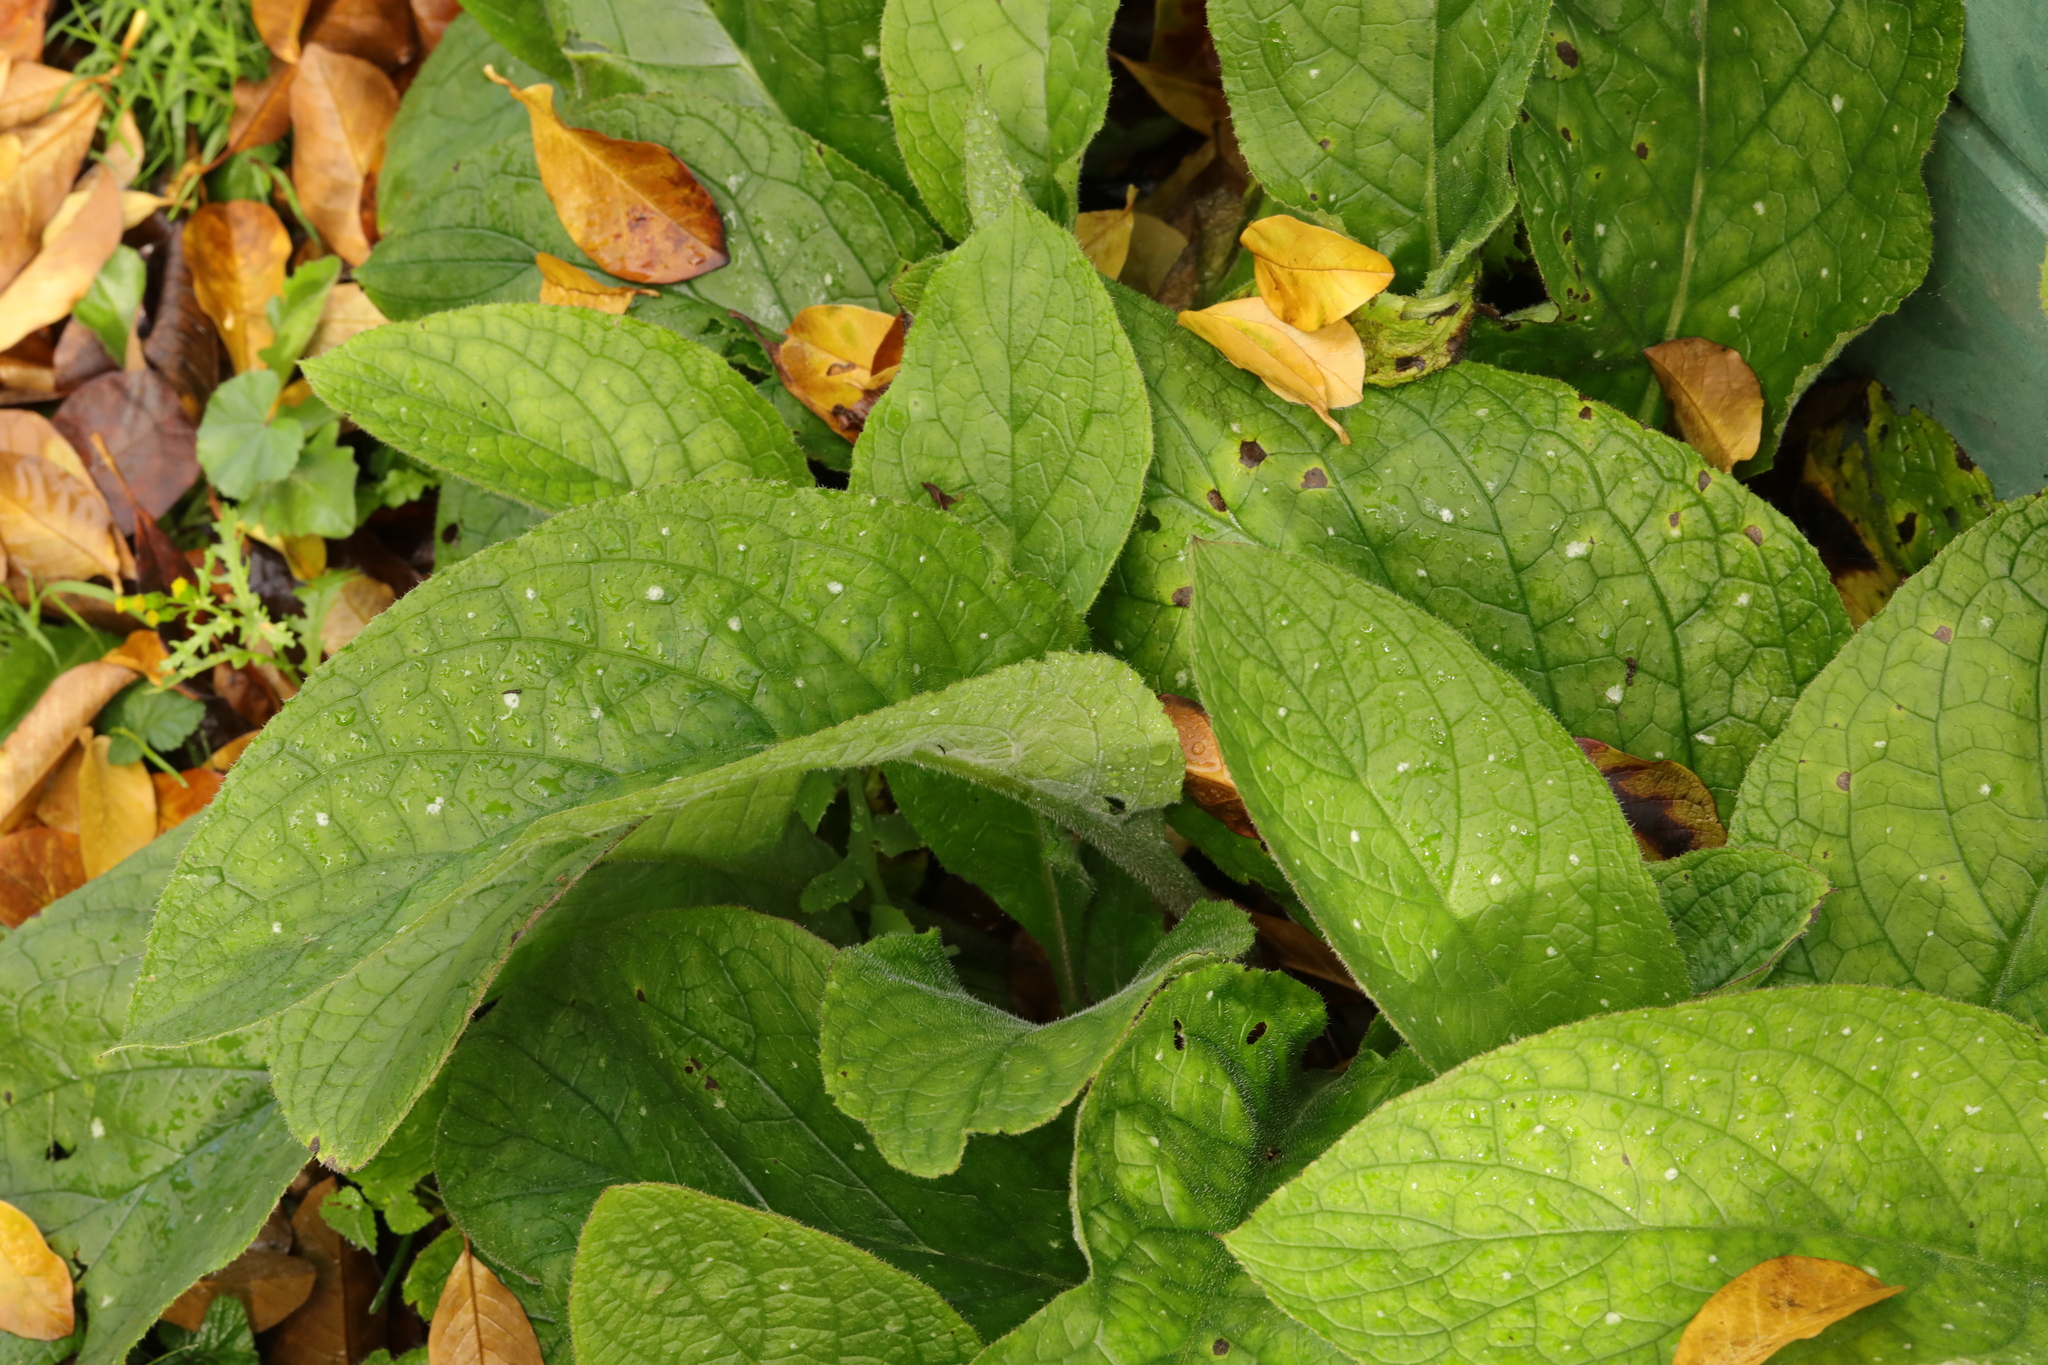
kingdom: Plantae
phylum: Tracheophyta
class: Magnoliopsida
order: Boraginales
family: Boraginaceae
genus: Pentaglottis
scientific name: Pentaglottis sempervirens
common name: Green alkanet
